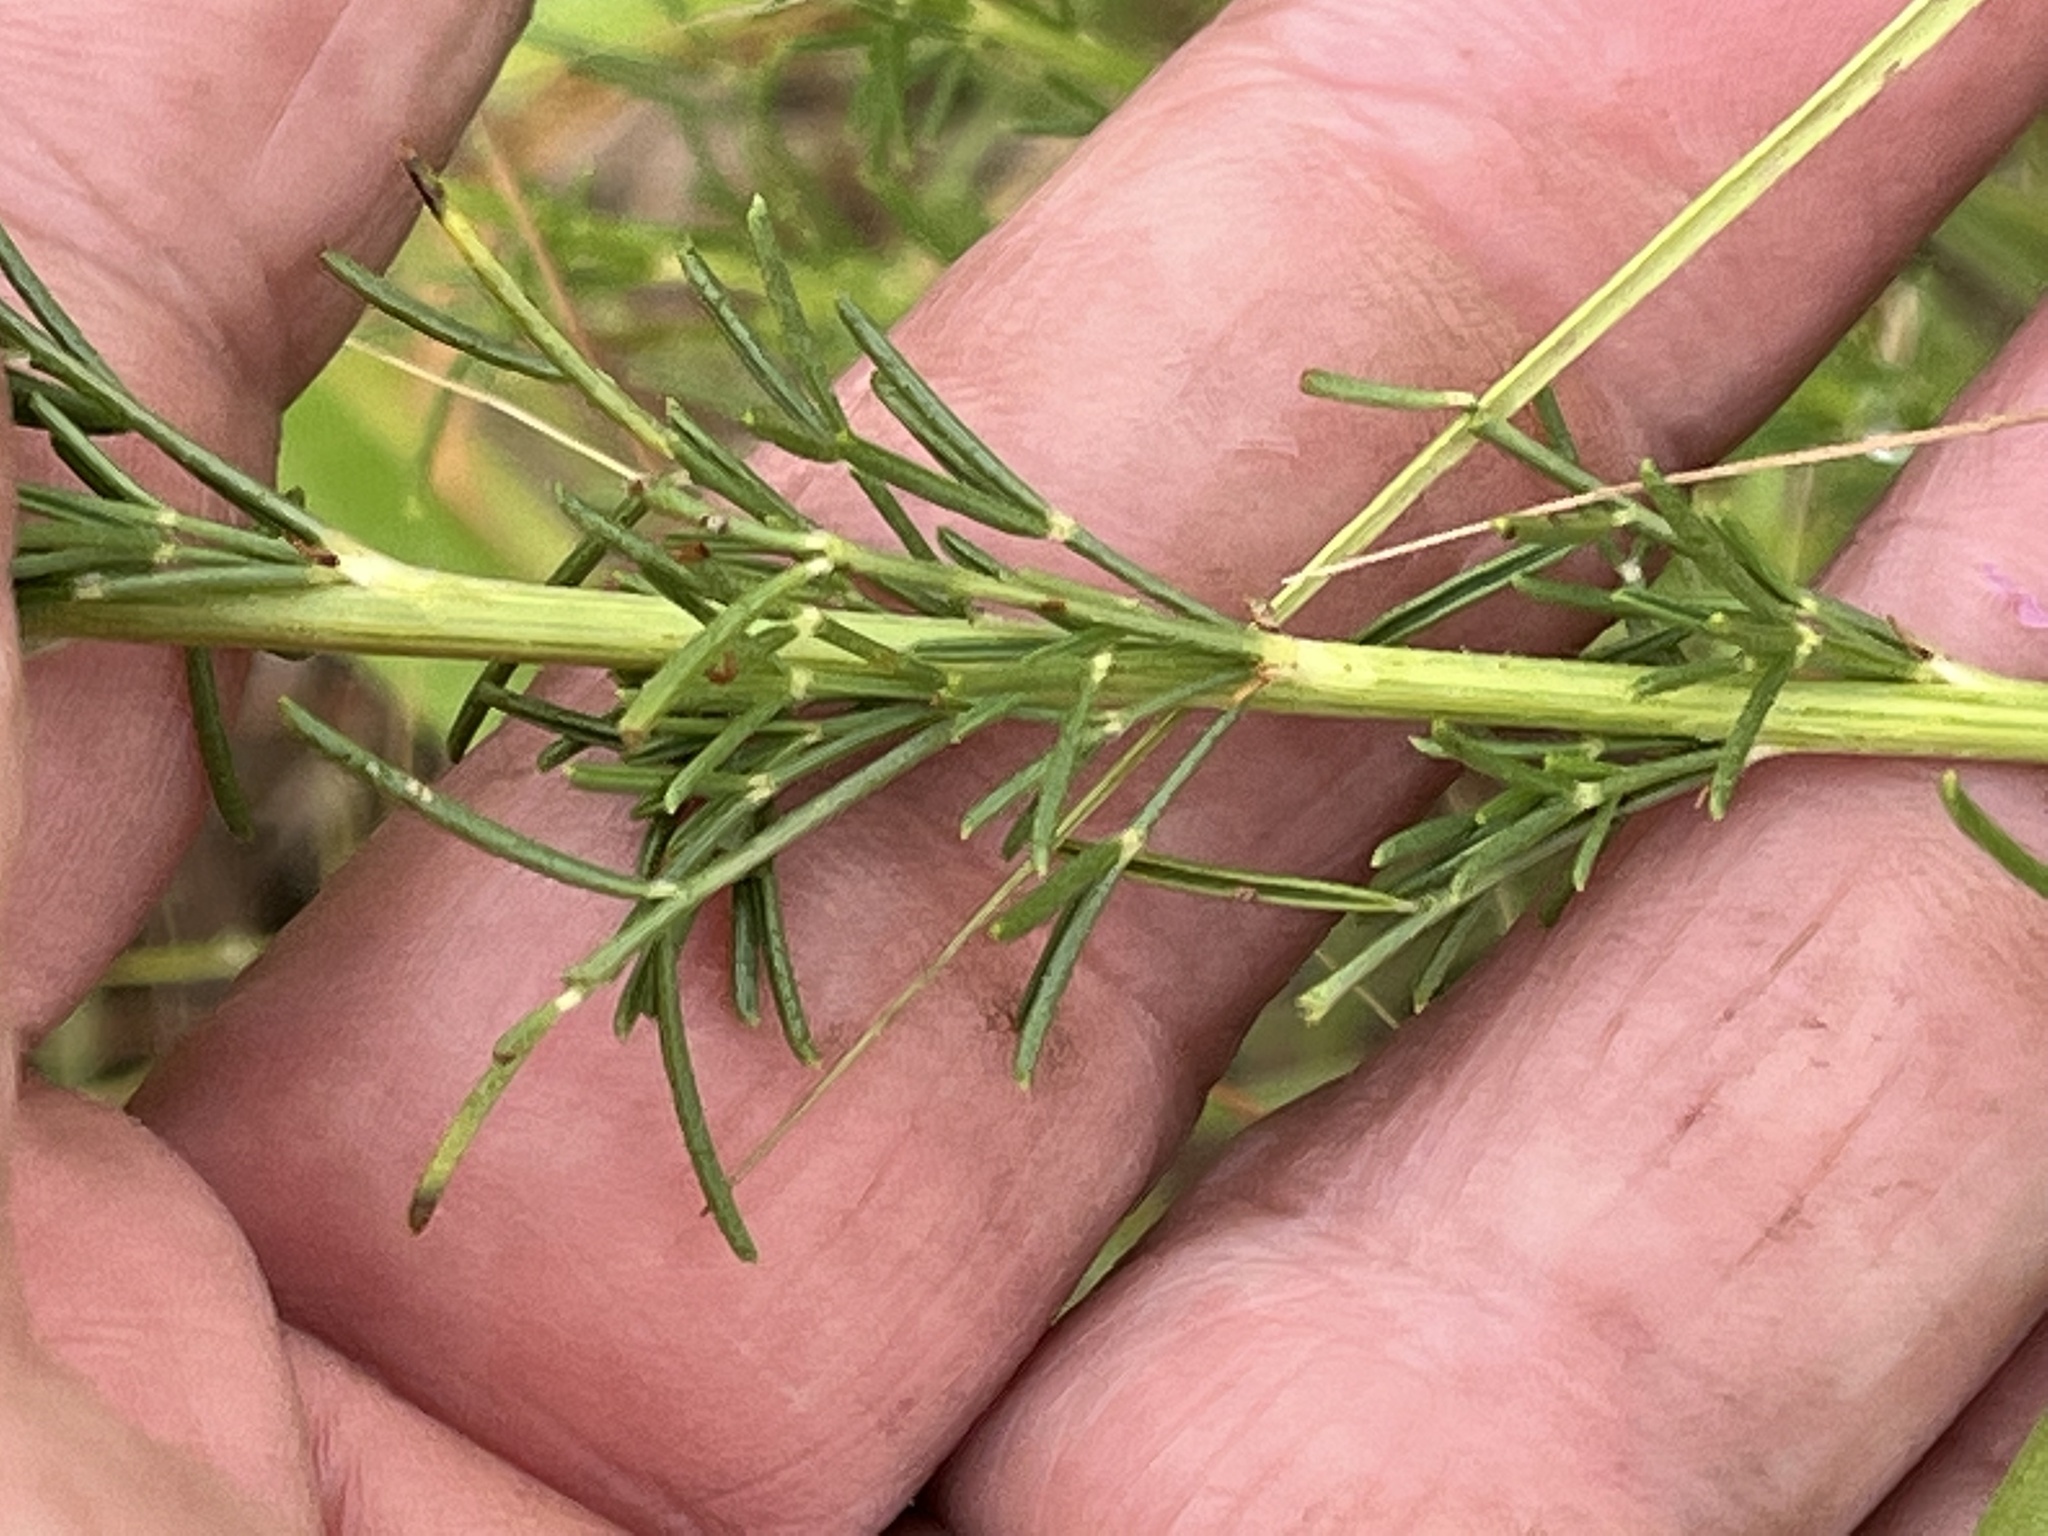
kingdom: Plantae
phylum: Tracheophyta
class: Magnoliopsida
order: Fabales
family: Fabaceae
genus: Dalea
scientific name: Dalea purpurea
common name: Purple prairie-clover
